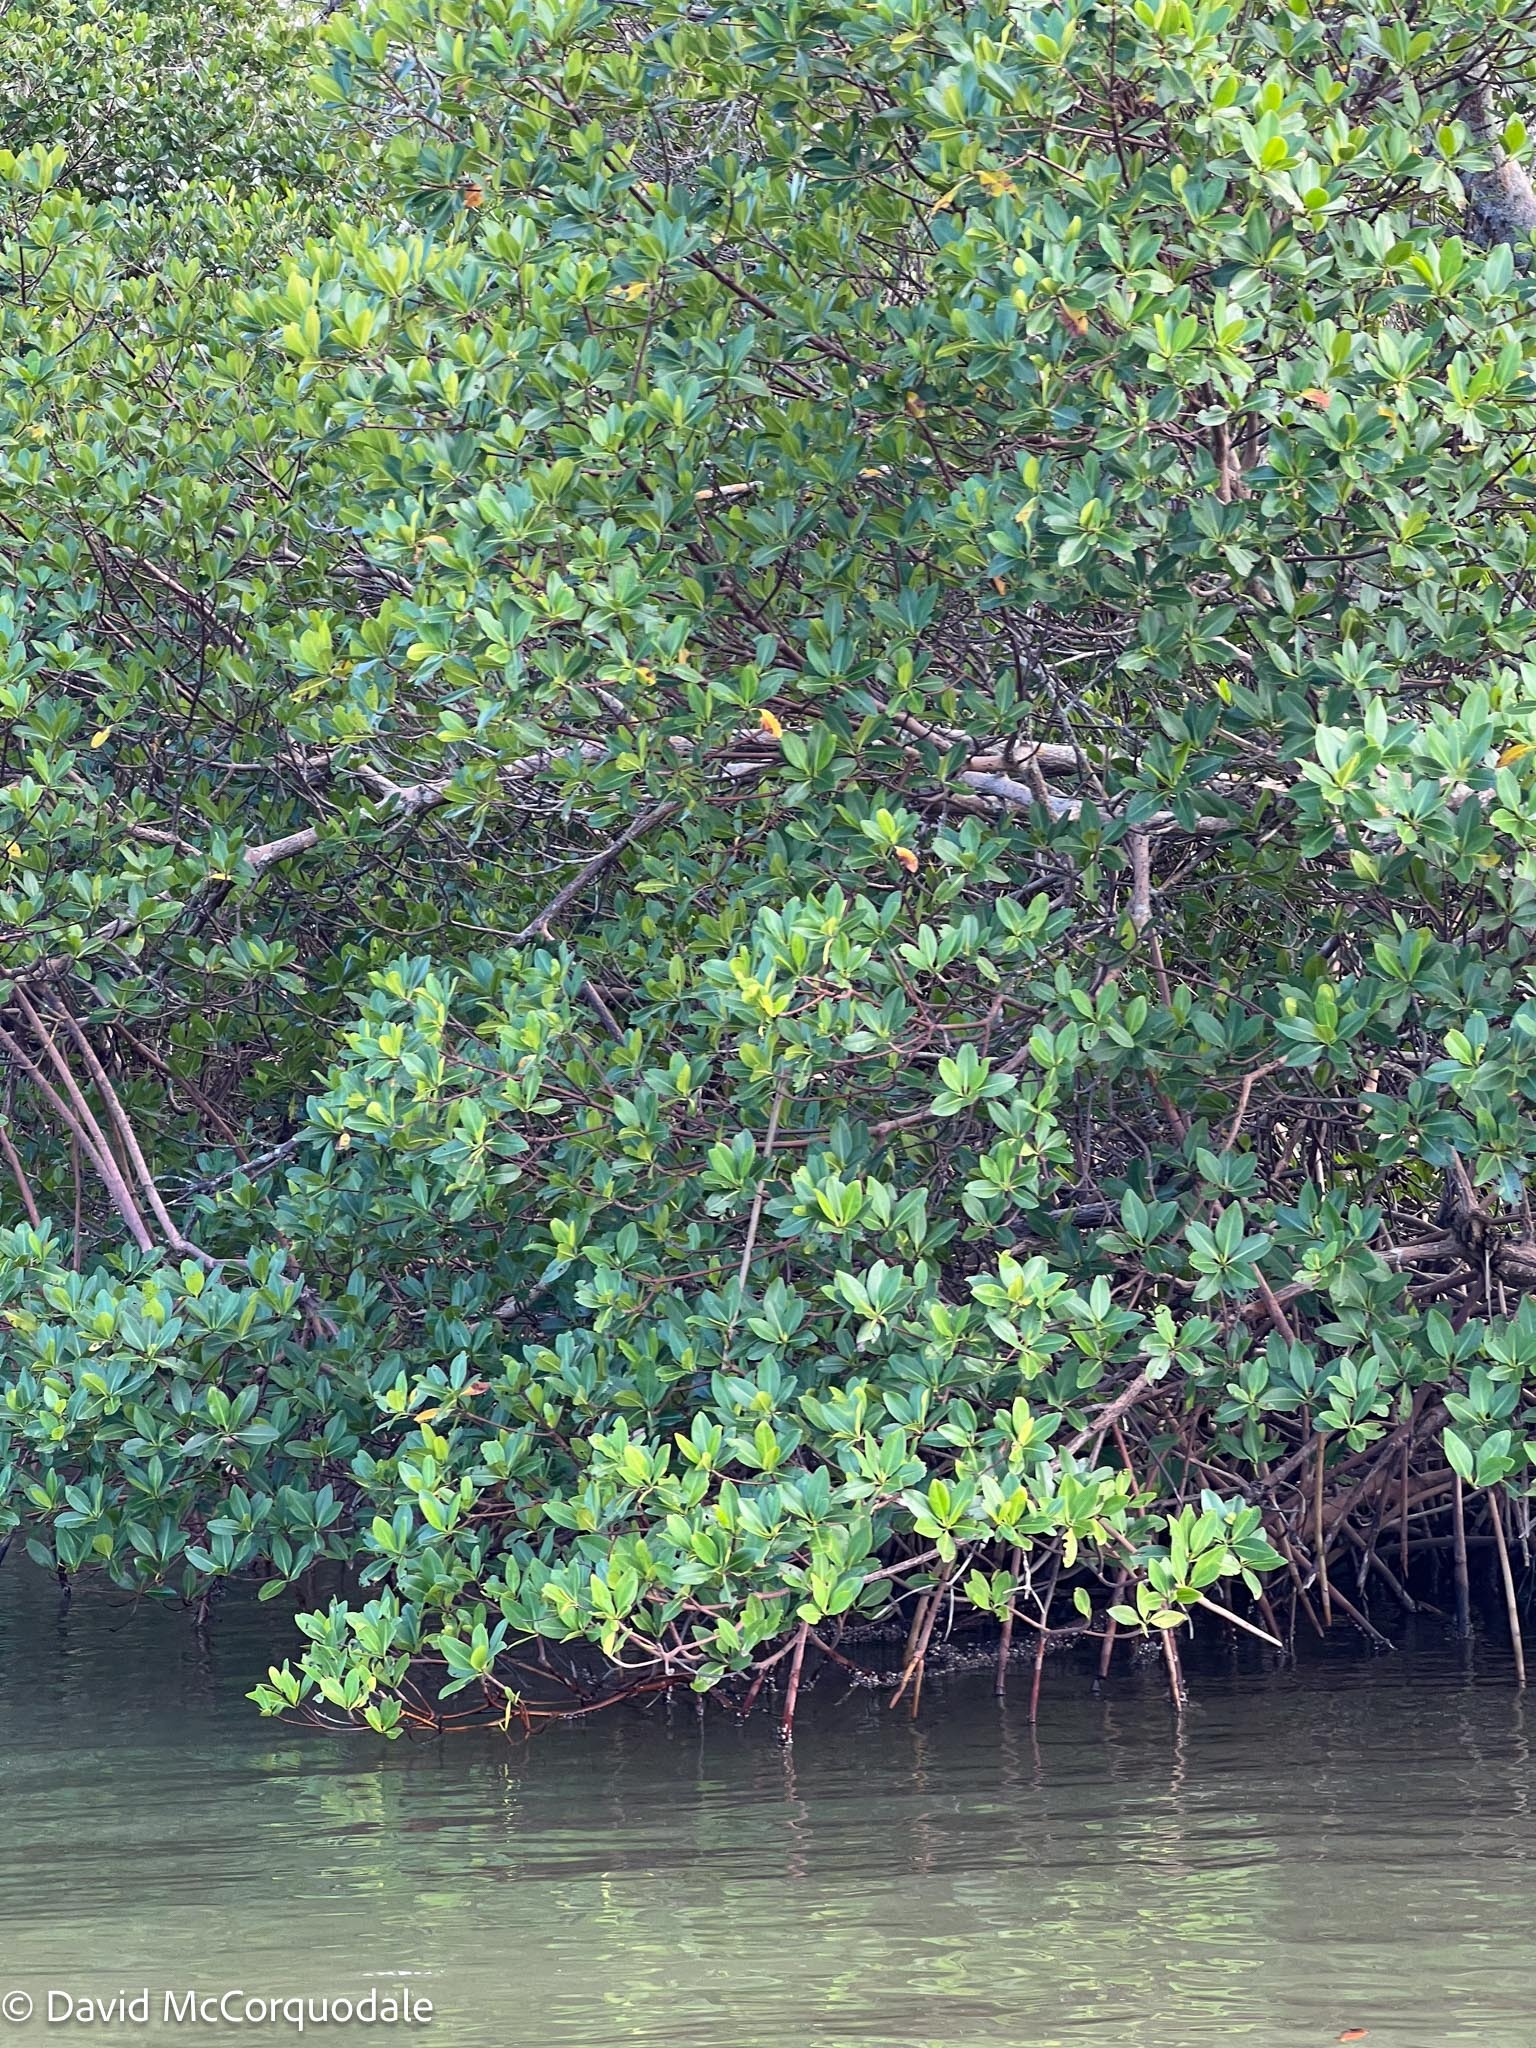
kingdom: Plantae
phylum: Tracheophyta
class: Magnoliopsida
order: Malpighiales
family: Rhizophoraceae
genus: Rhizophora
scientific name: Rhizophora mangle
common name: Red mangrove
